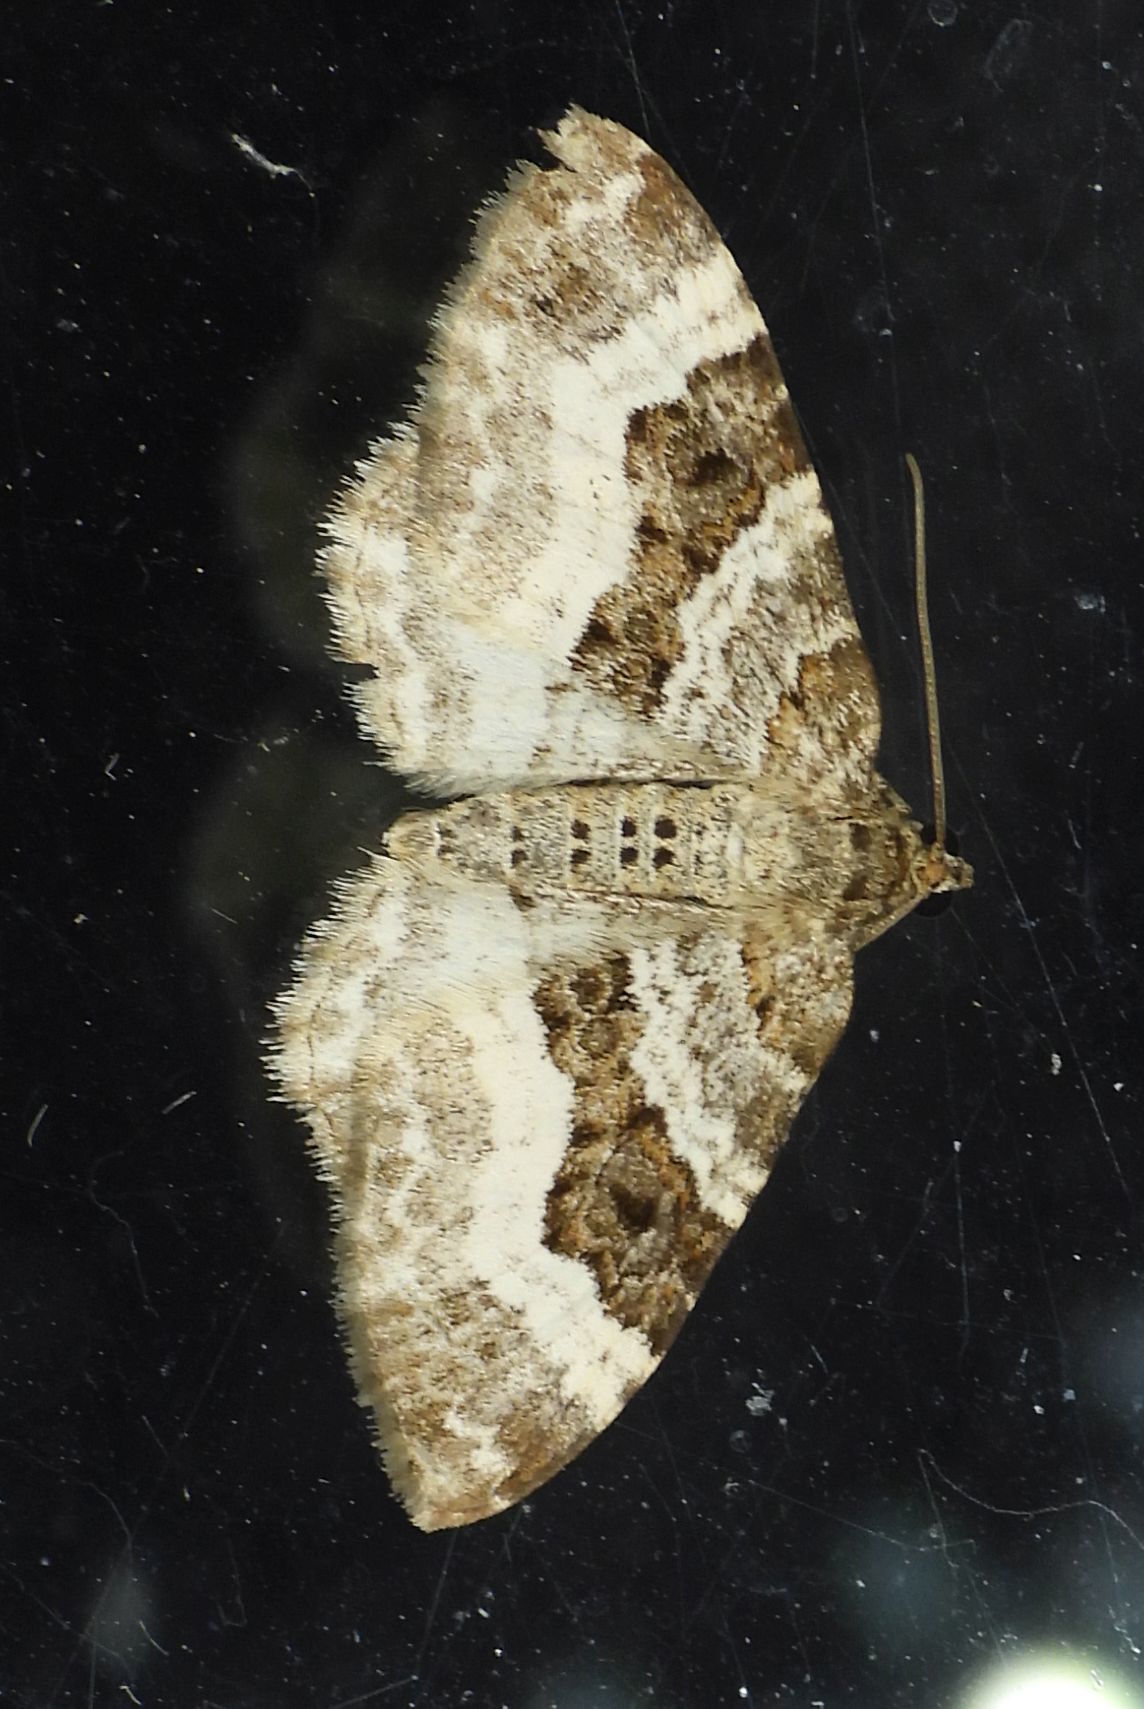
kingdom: Animalia
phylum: Arthropoda
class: Insecta
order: Lepidoptera
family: Geometridae
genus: Epirrhoe
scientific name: Epirrhoe alternata
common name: Common carpet
